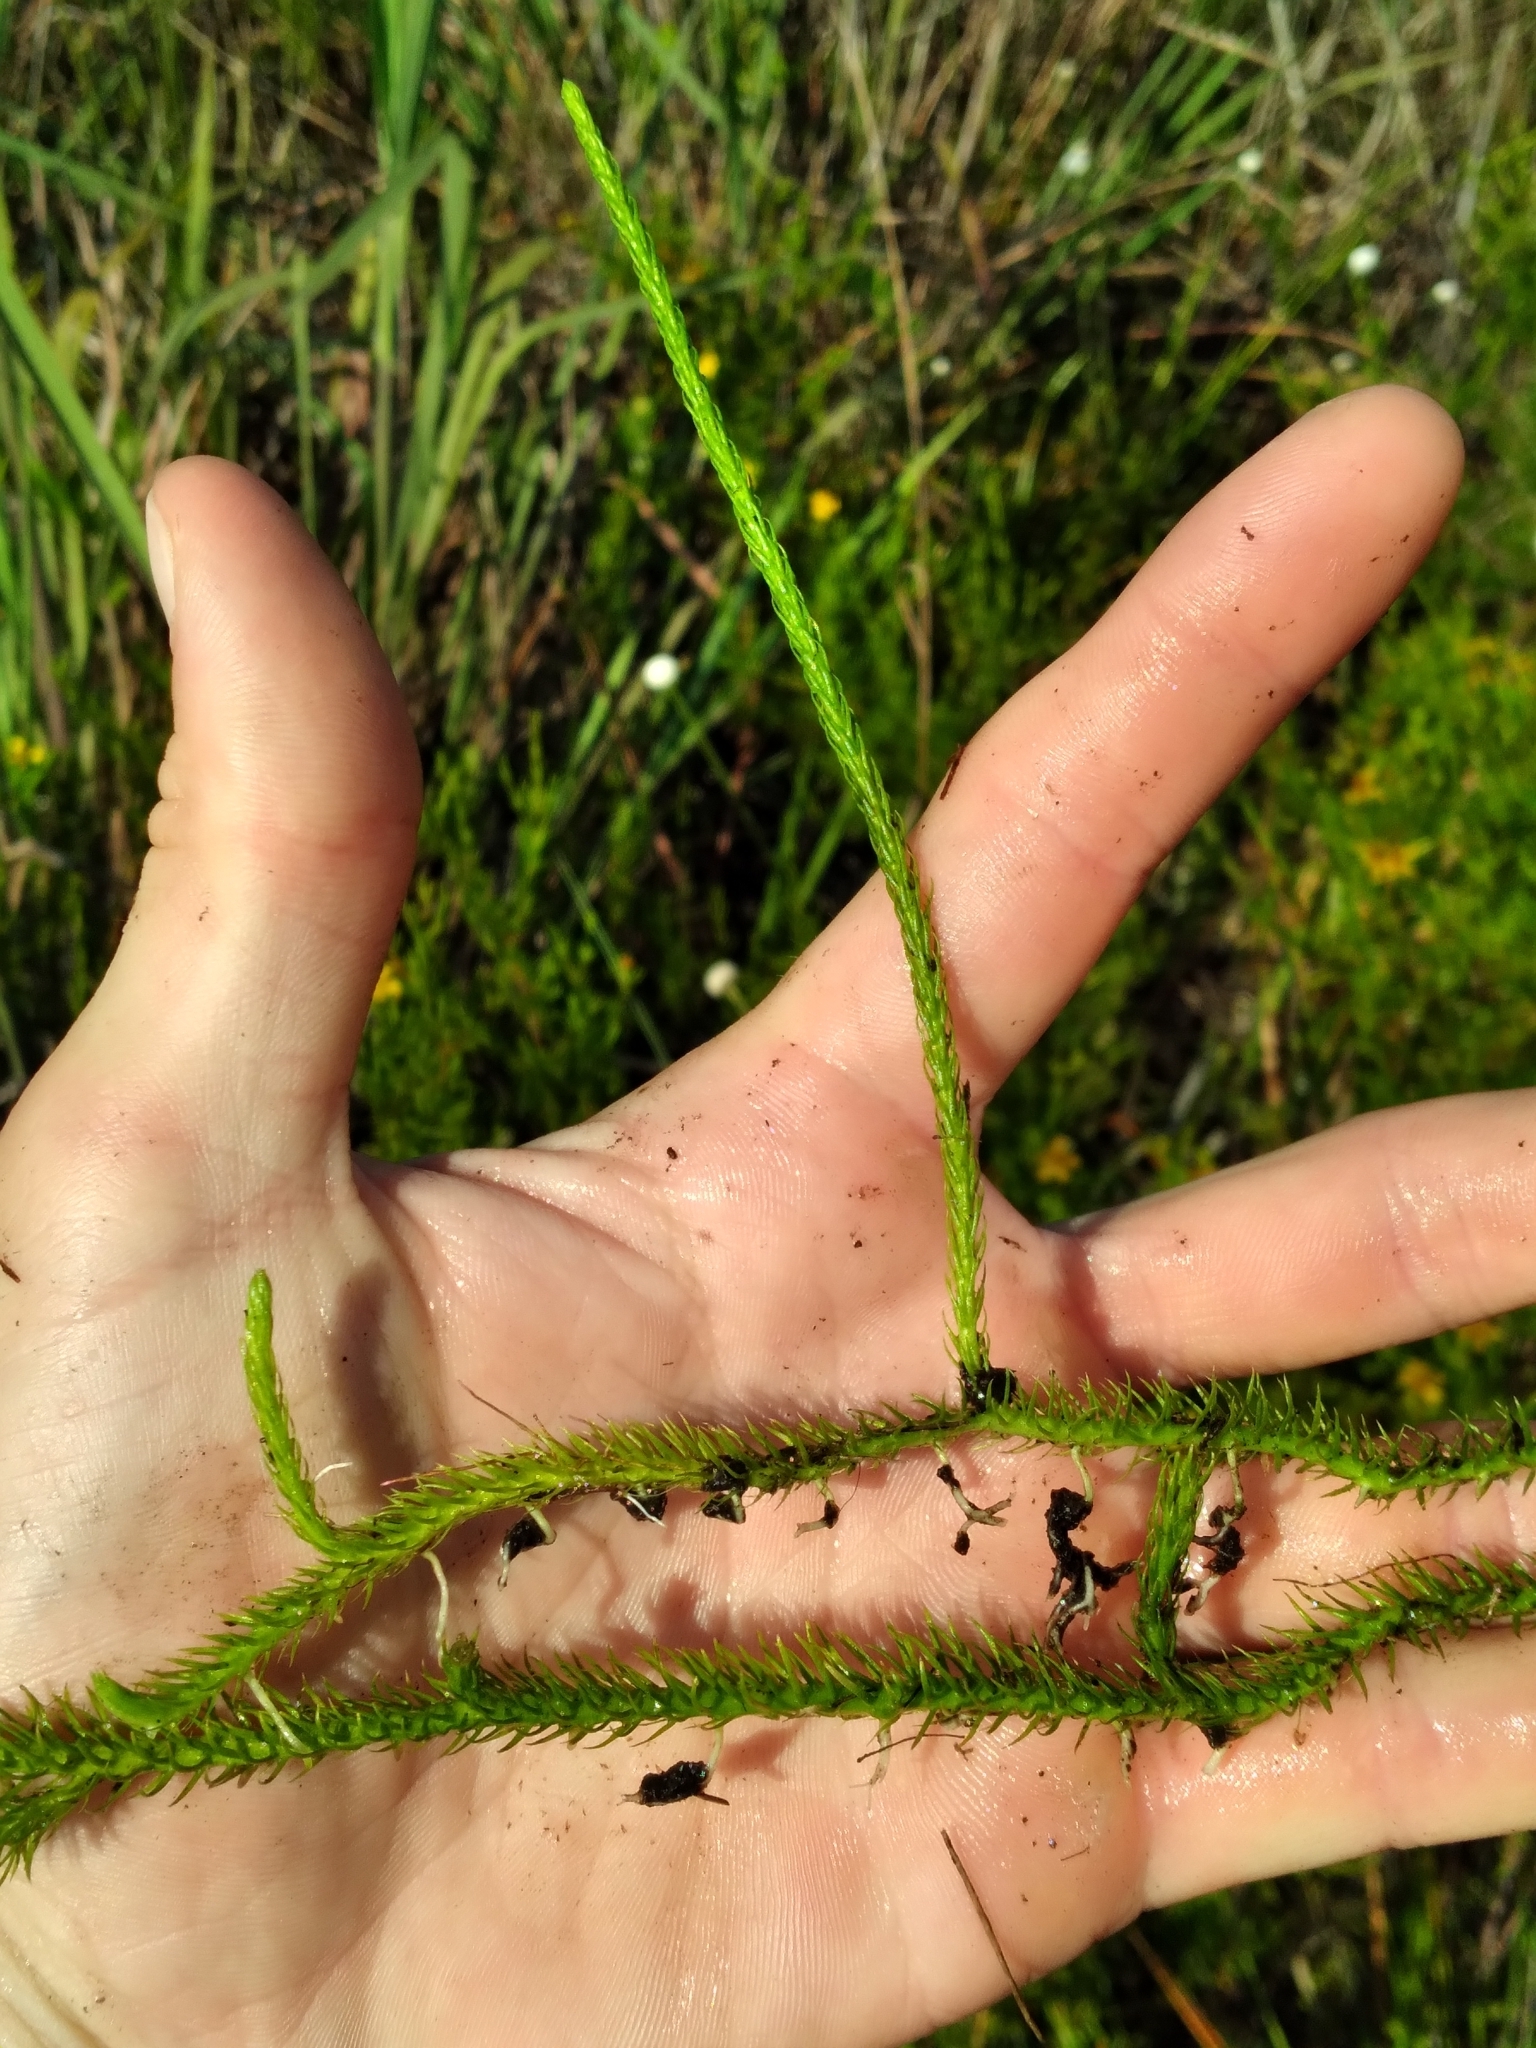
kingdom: Plantae
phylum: Tracheophyta
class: Lycopodiopsida
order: Lycopodiales
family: Lycopodiaceae
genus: Lycopodiella
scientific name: Lycopodiella appressa
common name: Appressed bog clubmoss
